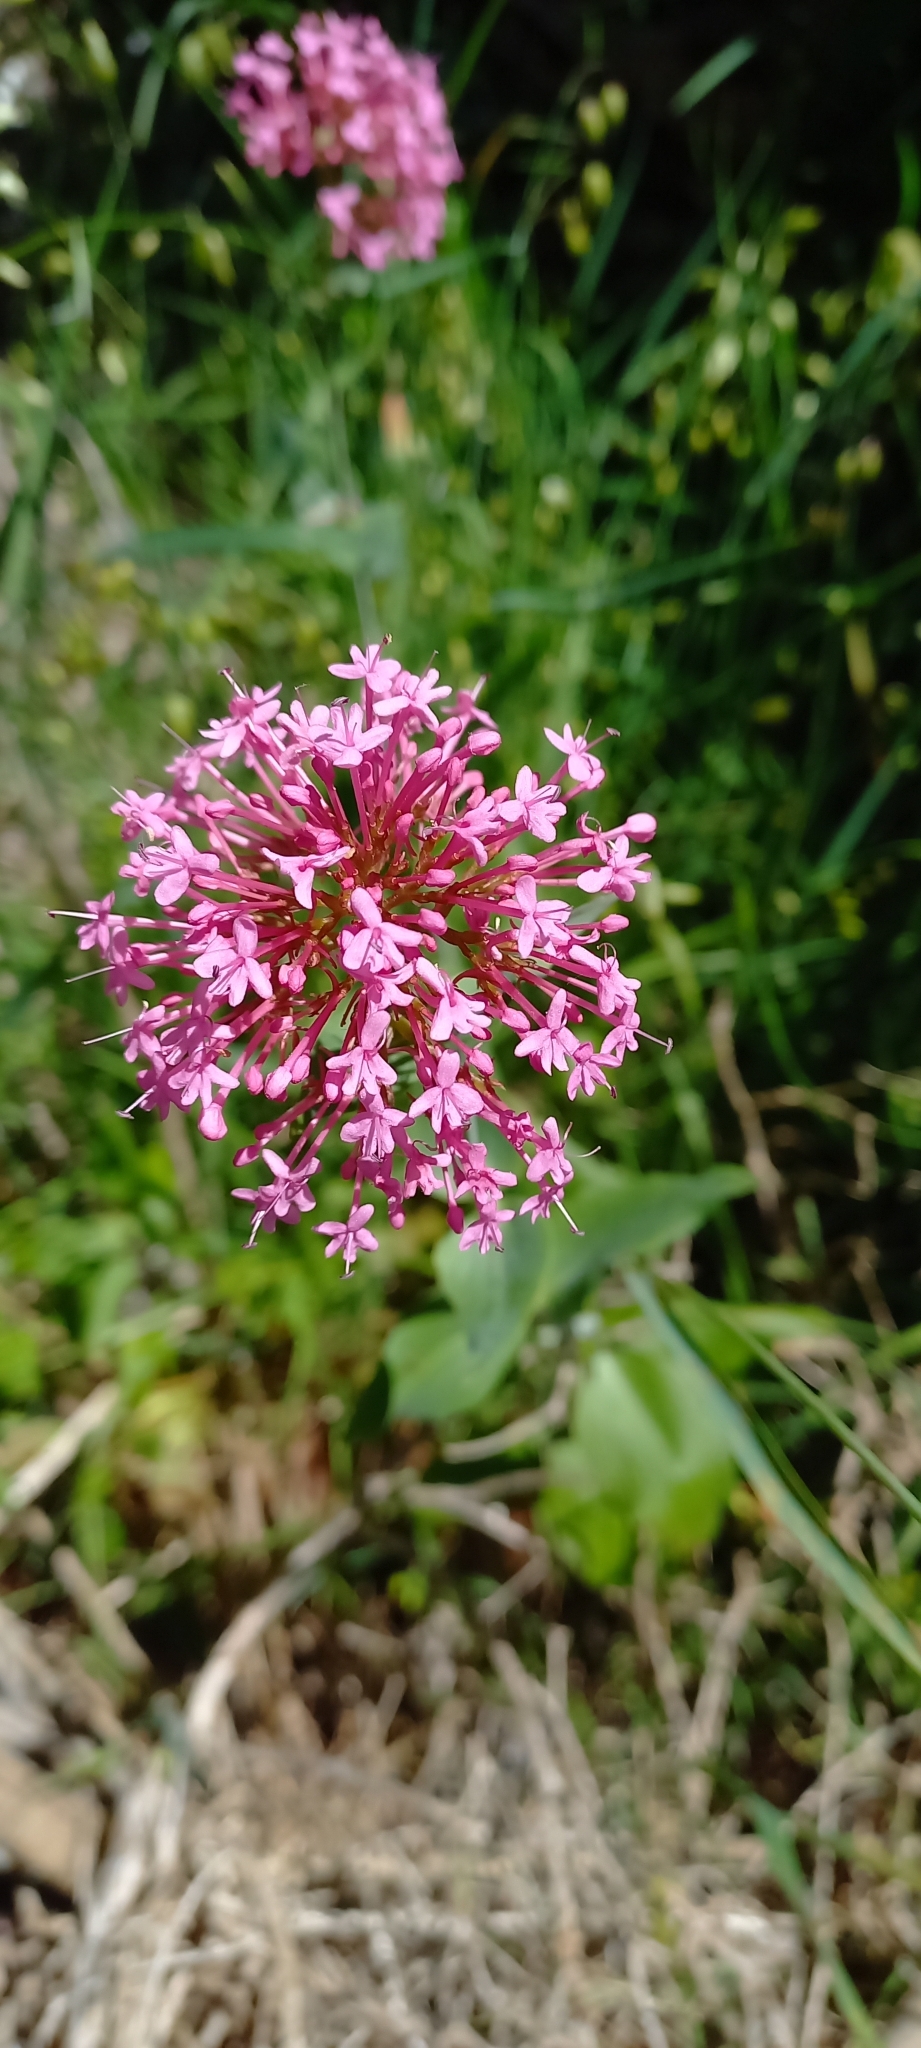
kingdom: Plantae
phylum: Tracheophyta
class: Magnoliopsida
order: Dipsacales
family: Caprifoliaceae
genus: Centranthus
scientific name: Centranthus ruber
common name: Red valerian
